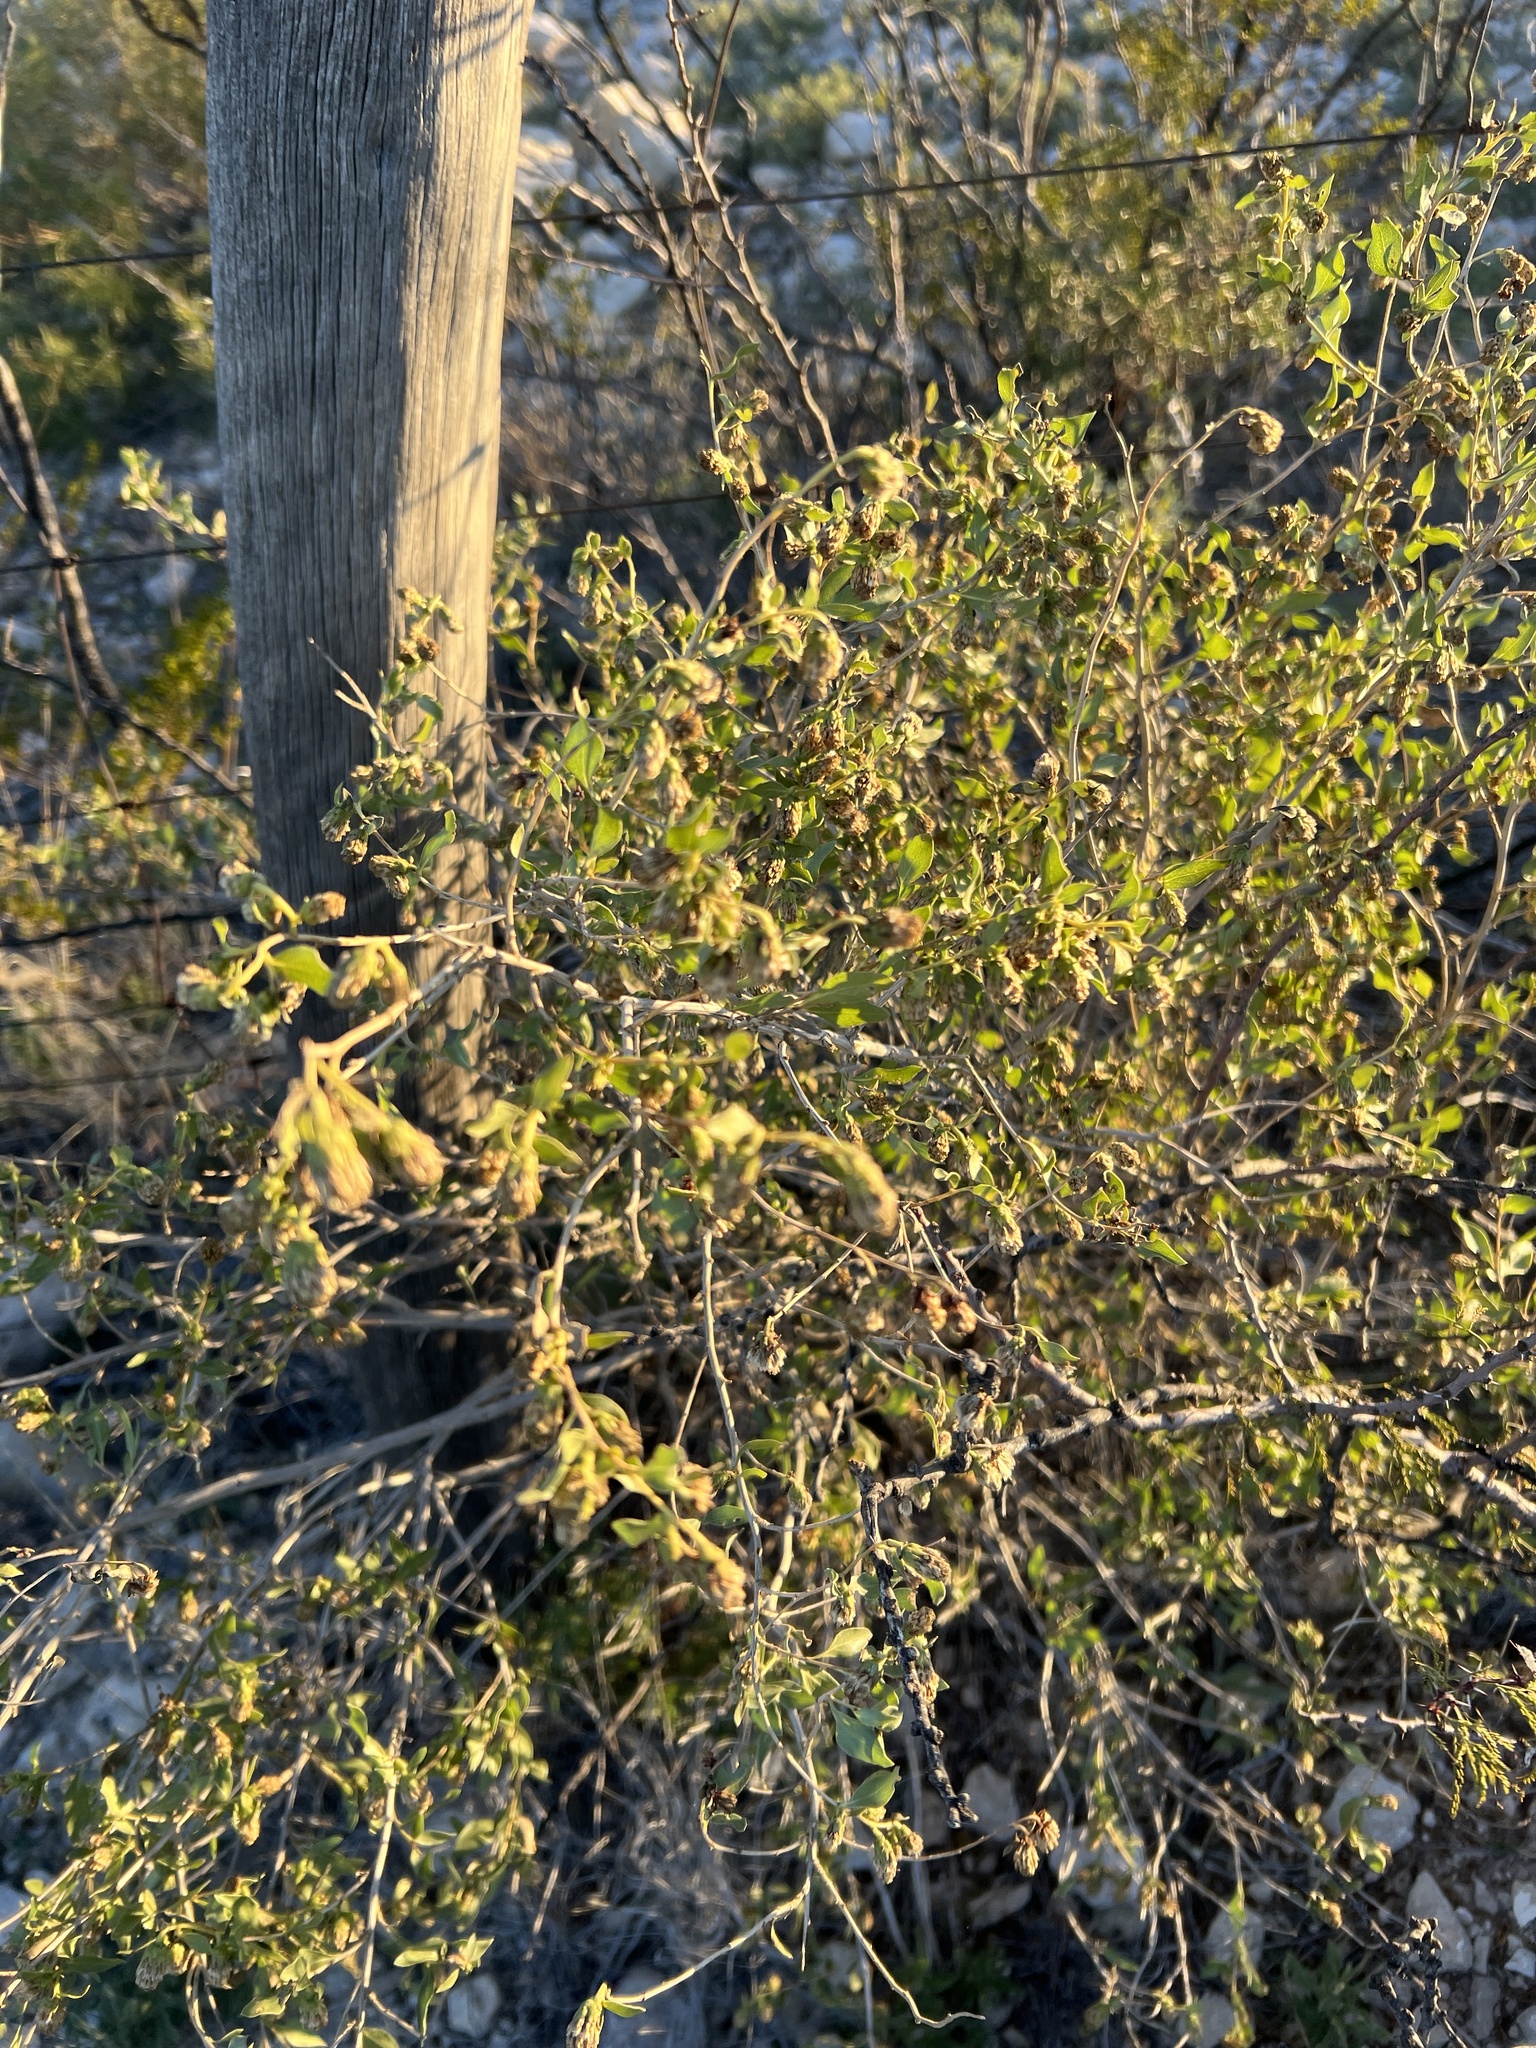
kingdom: Plantae
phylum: Tracheophyta
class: Magnoliopsida
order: Asterales
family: Asteraceae
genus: Flourensia
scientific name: Flourensia cernua
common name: Varnishbush
